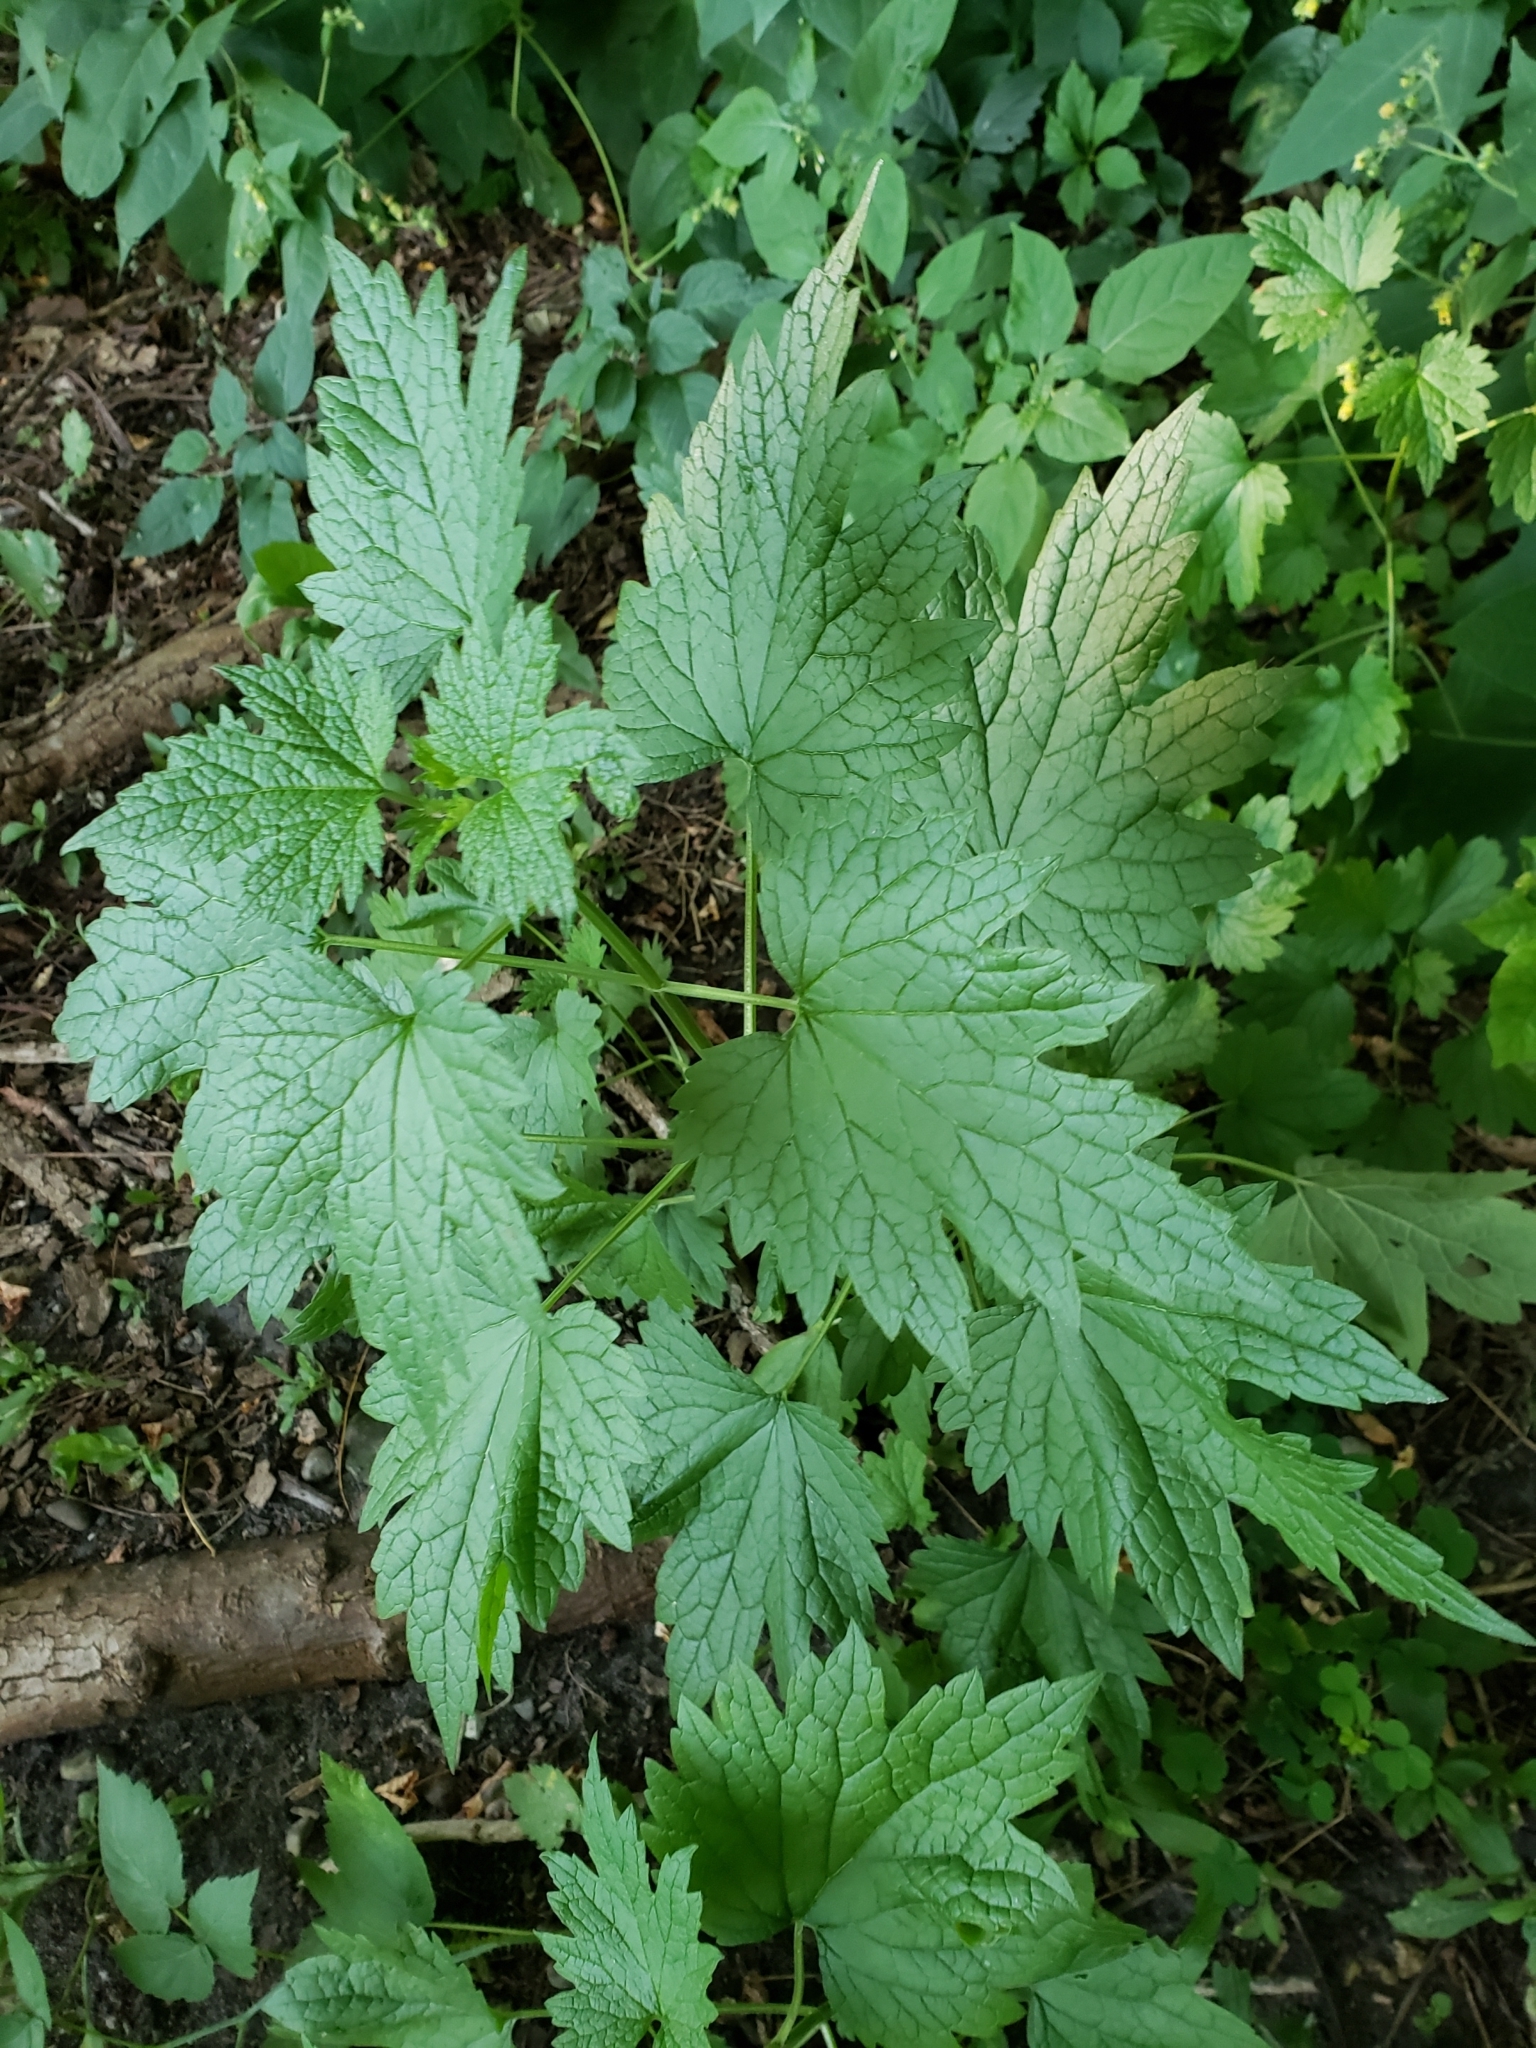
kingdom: Plantae
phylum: Tracheophyta
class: Magnoliopsida
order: Lamiales
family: Lamiaceae
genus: Leonurus
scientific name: Leonurus cardiaca
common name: Motherwort
